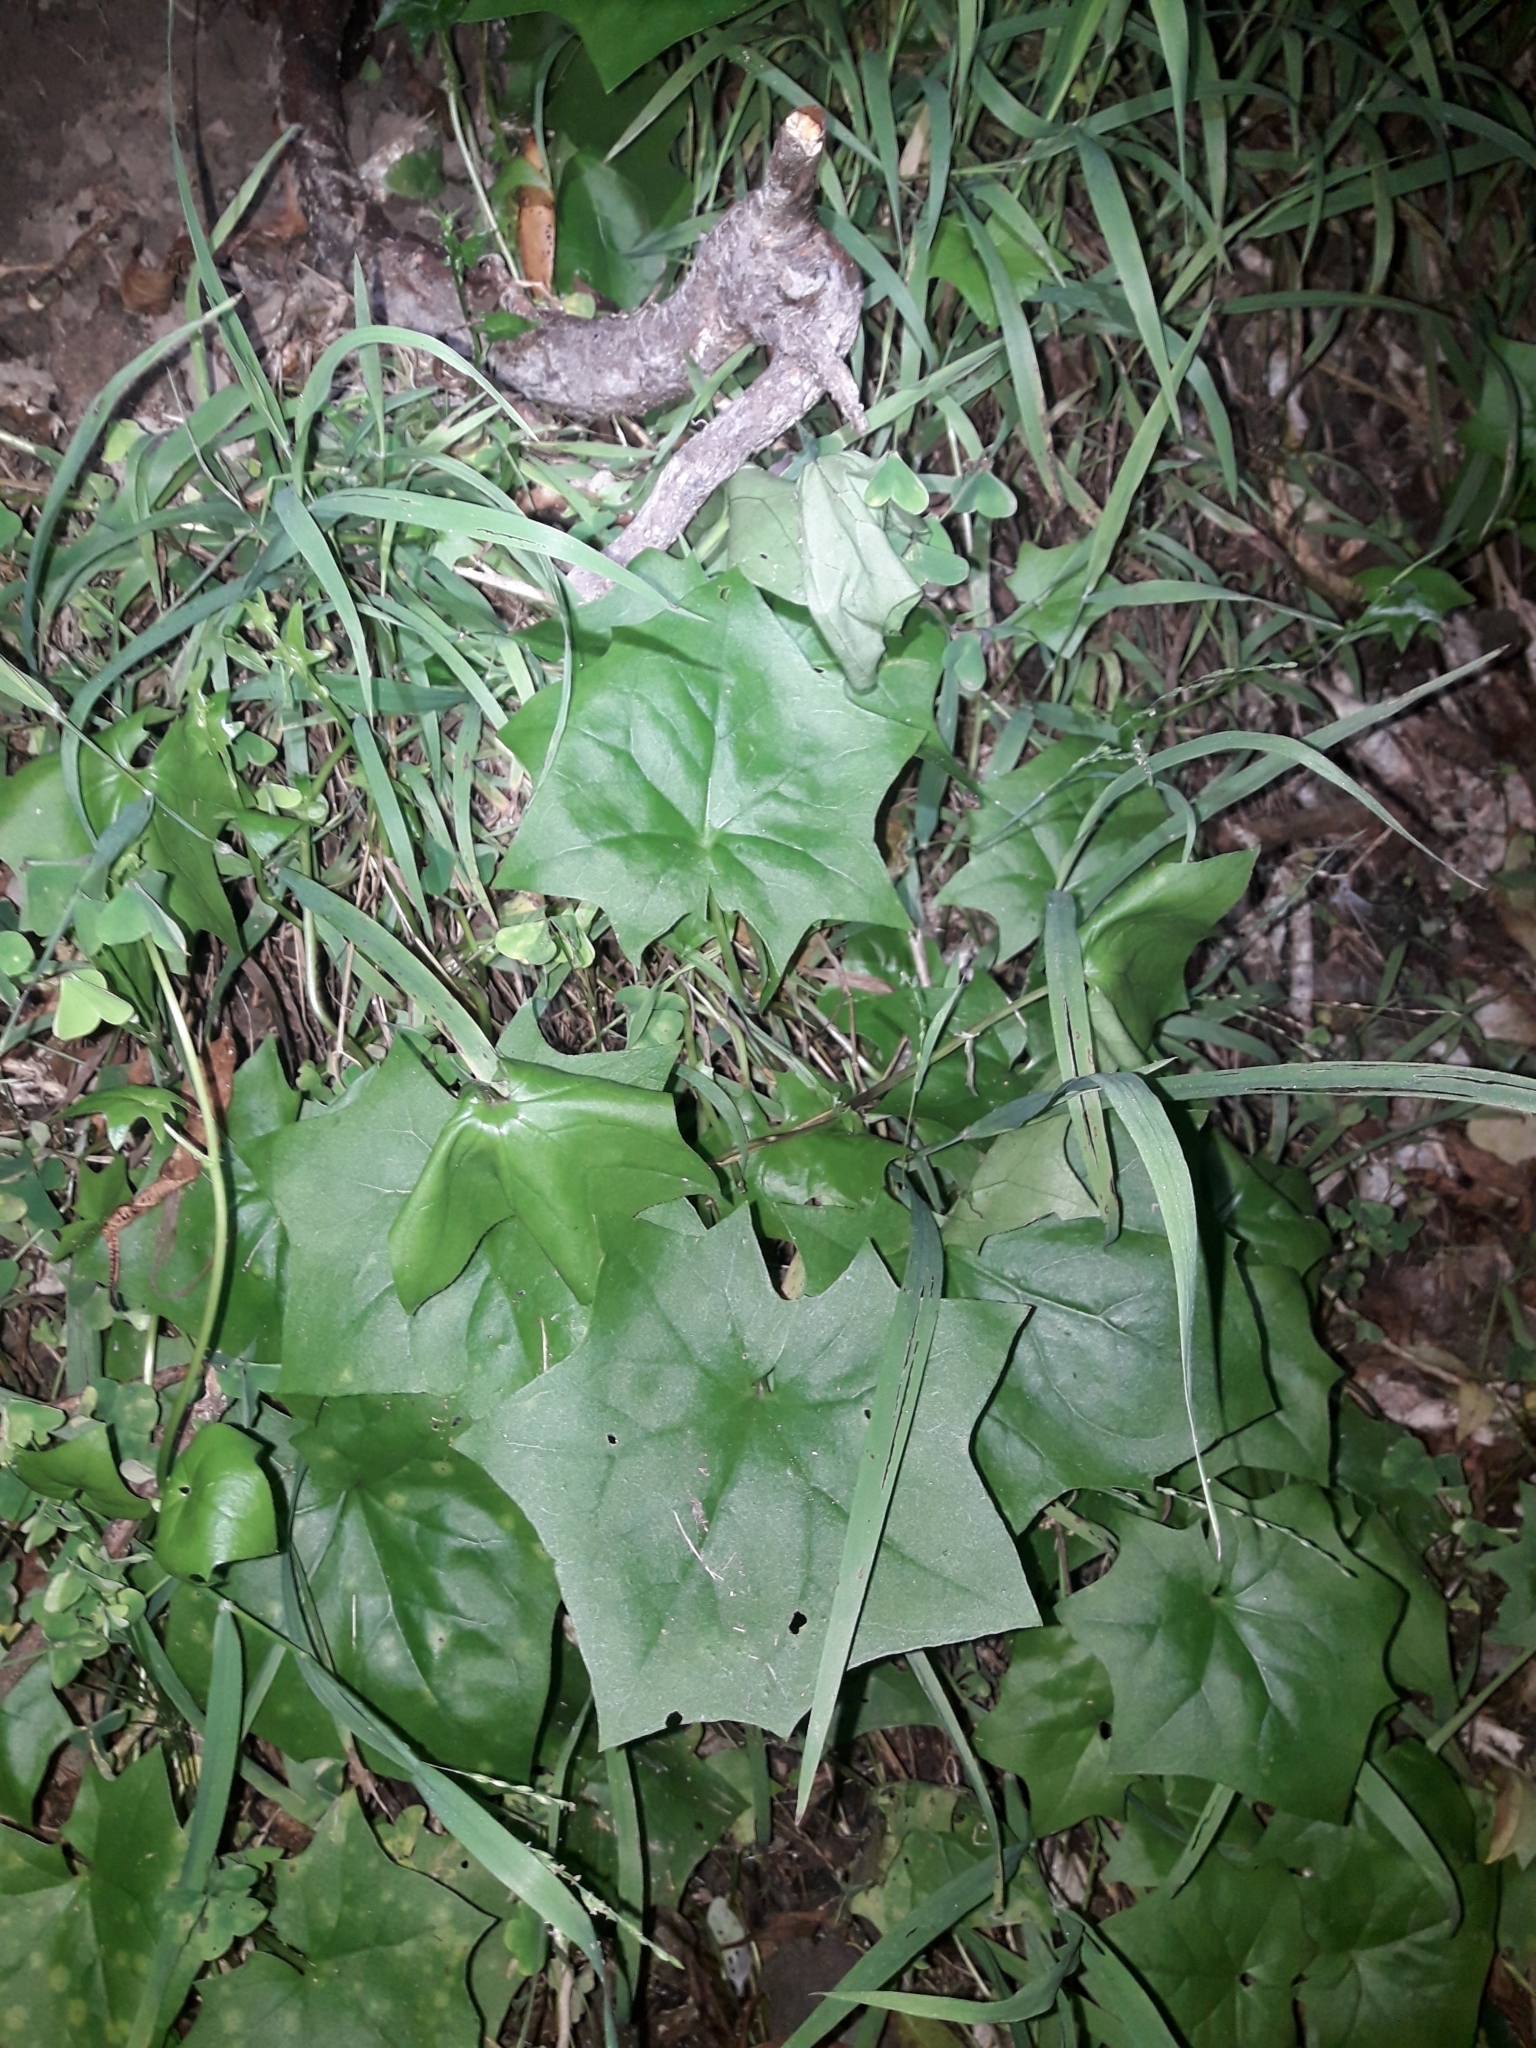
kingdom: Plantae
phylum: Tracheophyta
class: Magnoliopsida
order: Asterales
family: Asteraceae
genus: Delairea
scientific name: Delairea odorata
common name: Cape-ivy
